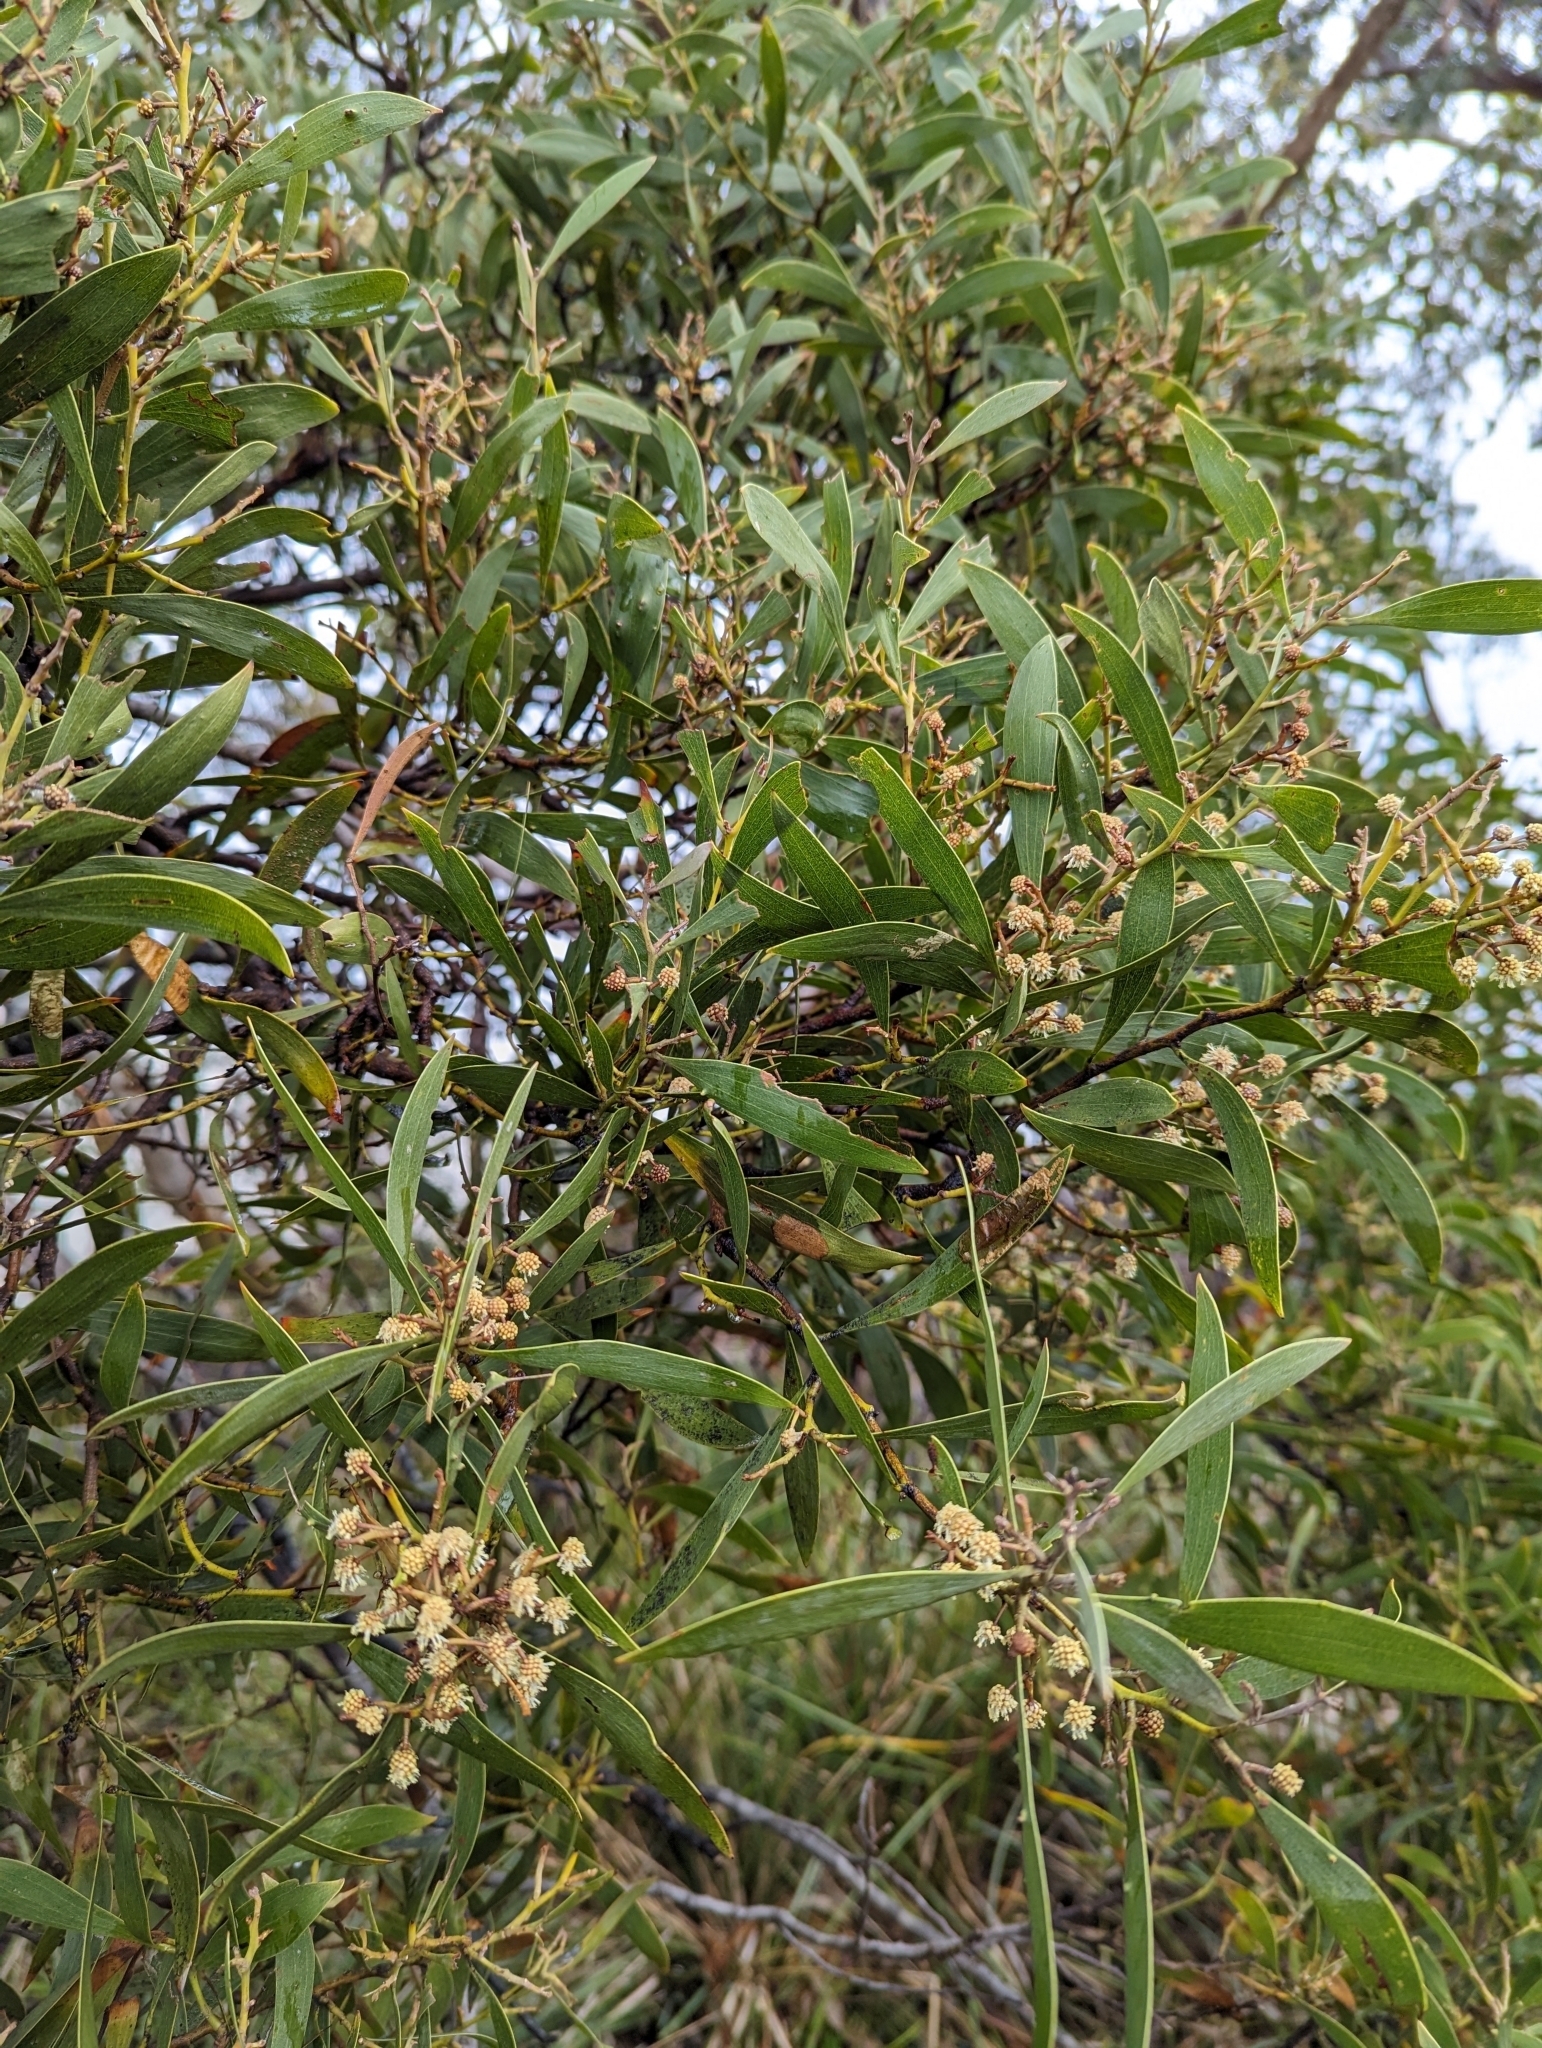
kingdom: Plantae
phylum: Tracheophyta
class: Magnoliopsida
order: Fabales
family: Fabaceae
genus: Acacia
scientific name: Acacia melanoxylon
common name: Blackwood
